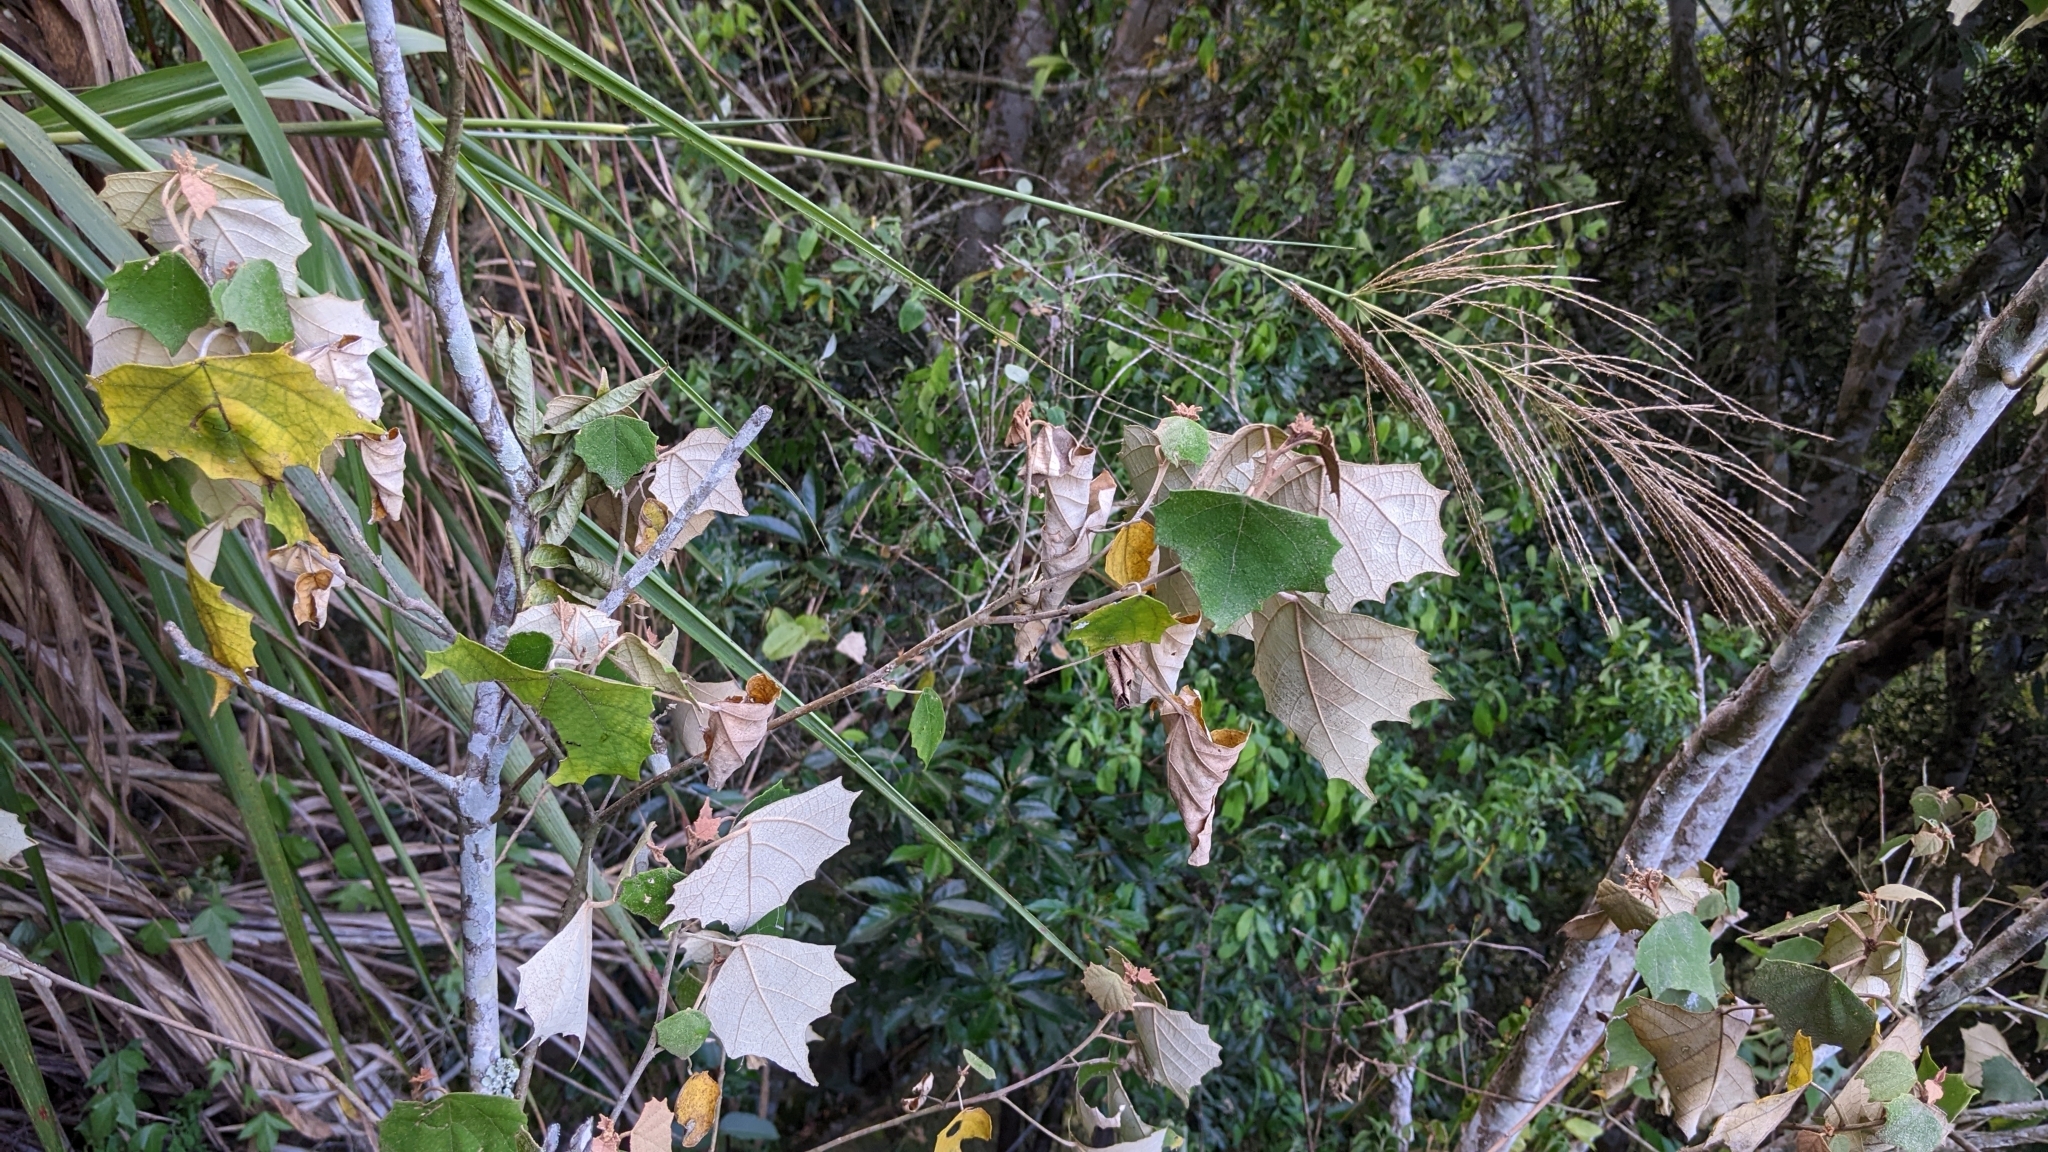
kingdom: Plantae
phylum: Tracheophyta
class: Magnoliopsida
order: Malpighiales
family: Euphorbiaceae
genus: Mallotus
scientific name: Mallotus paniculatus
